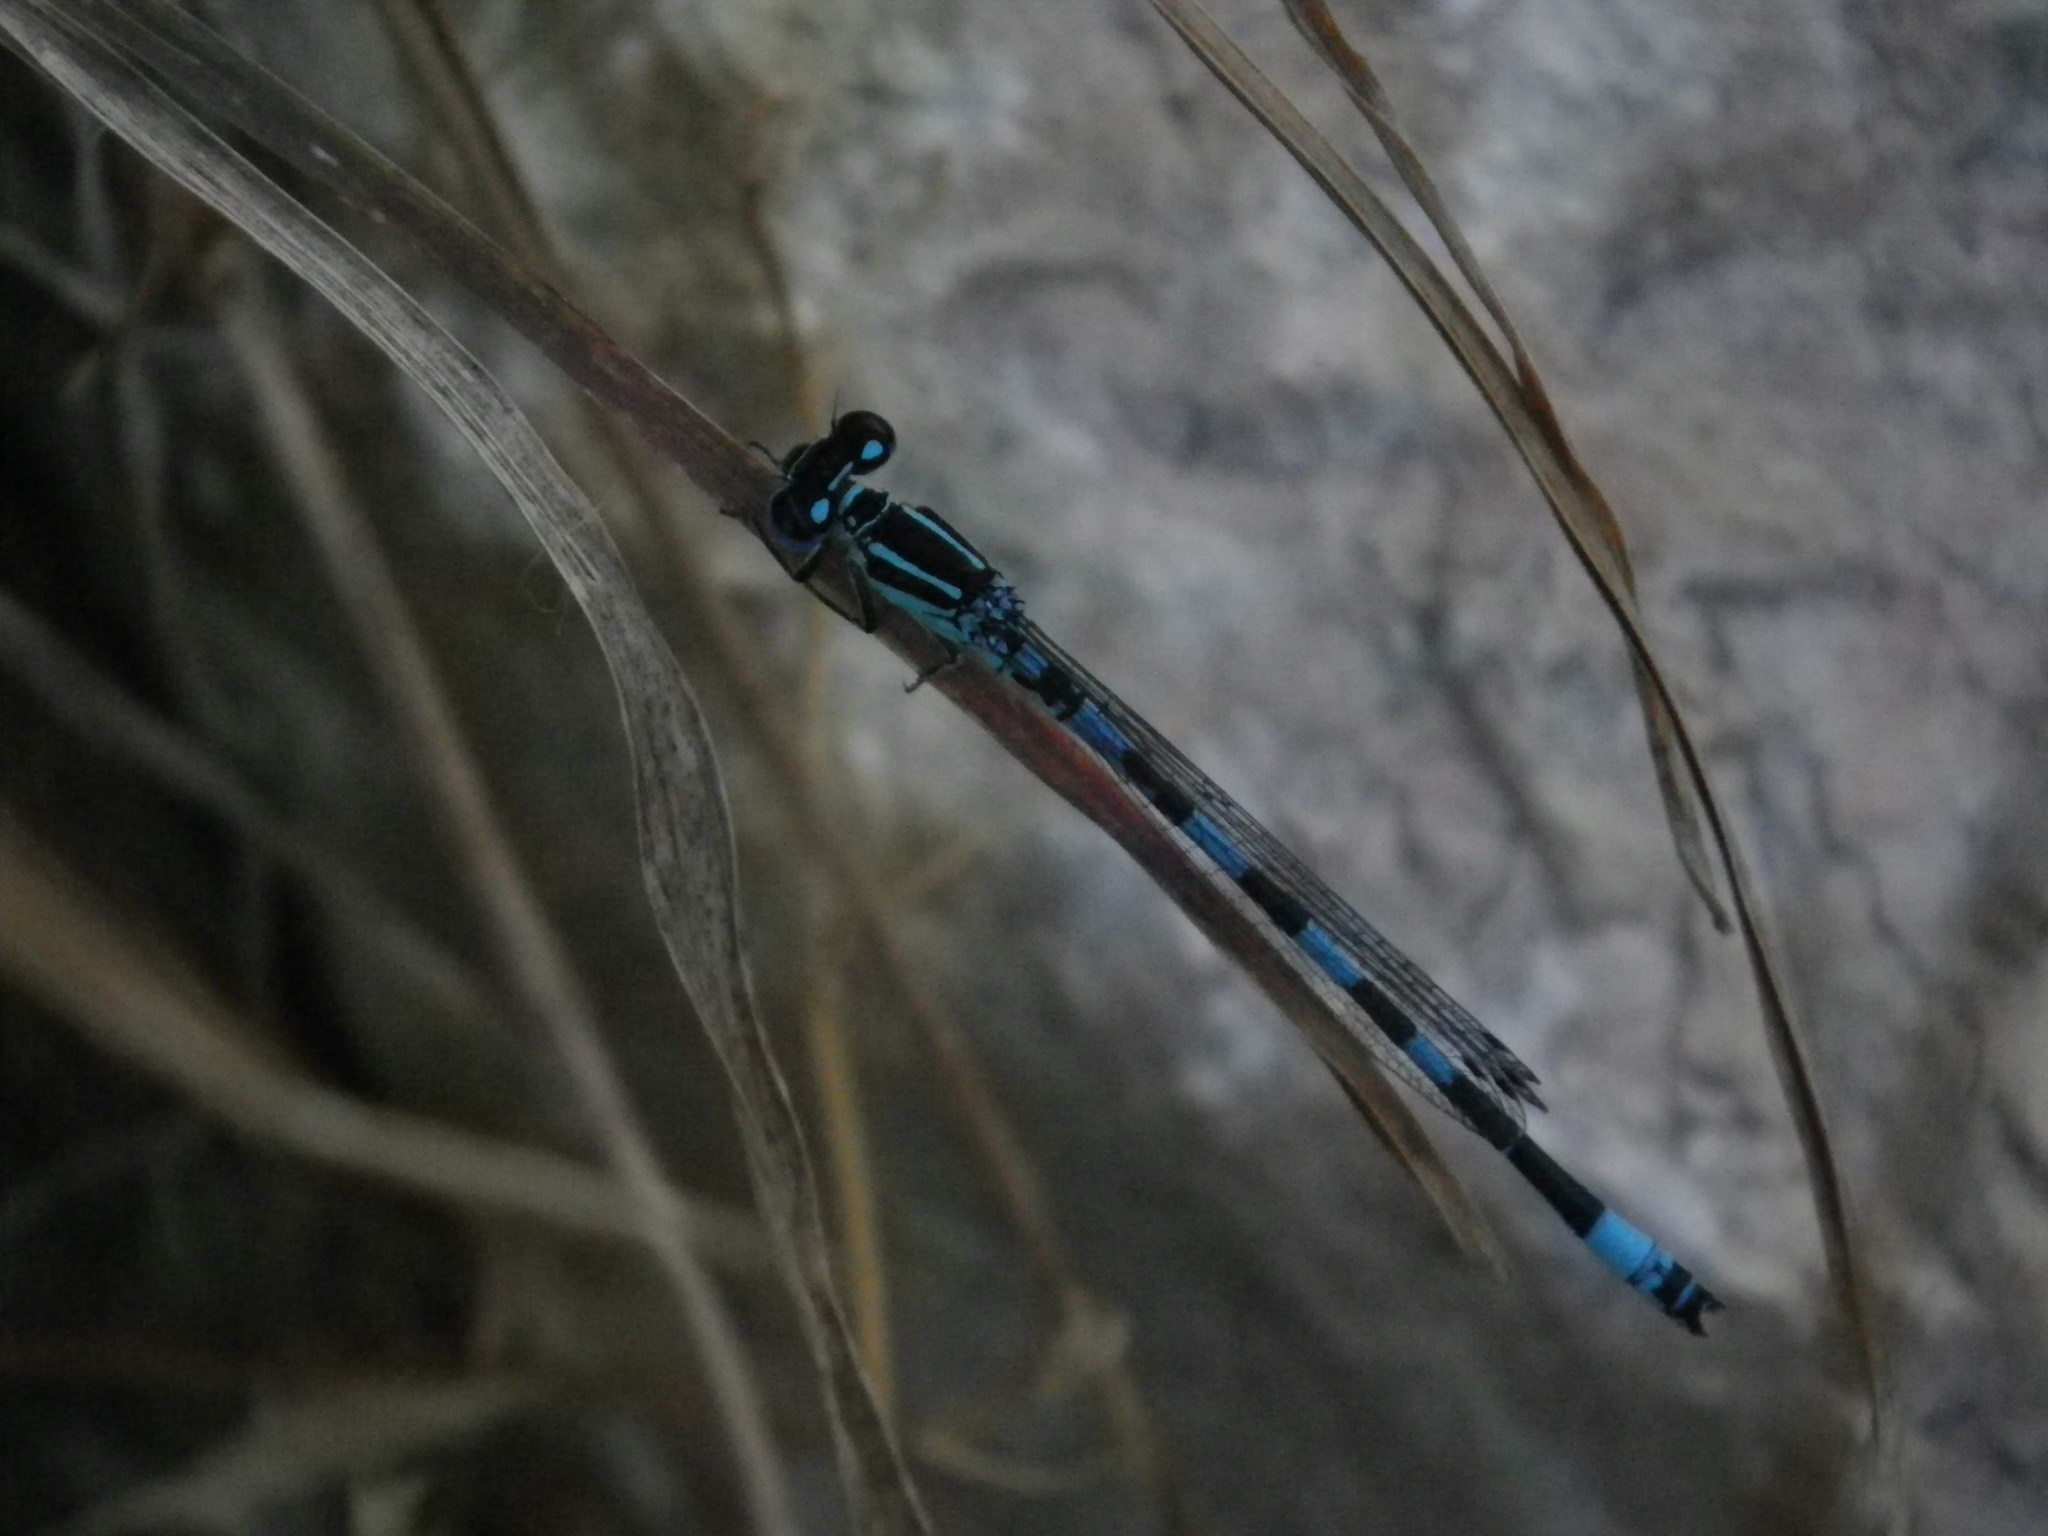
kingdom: Animalia
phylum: Arthropoda
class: Insecta
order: Odonata
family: Coenagrionidae
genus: Coenagrion
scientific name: Coenagrion mercuriale
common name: Southern damselfly
